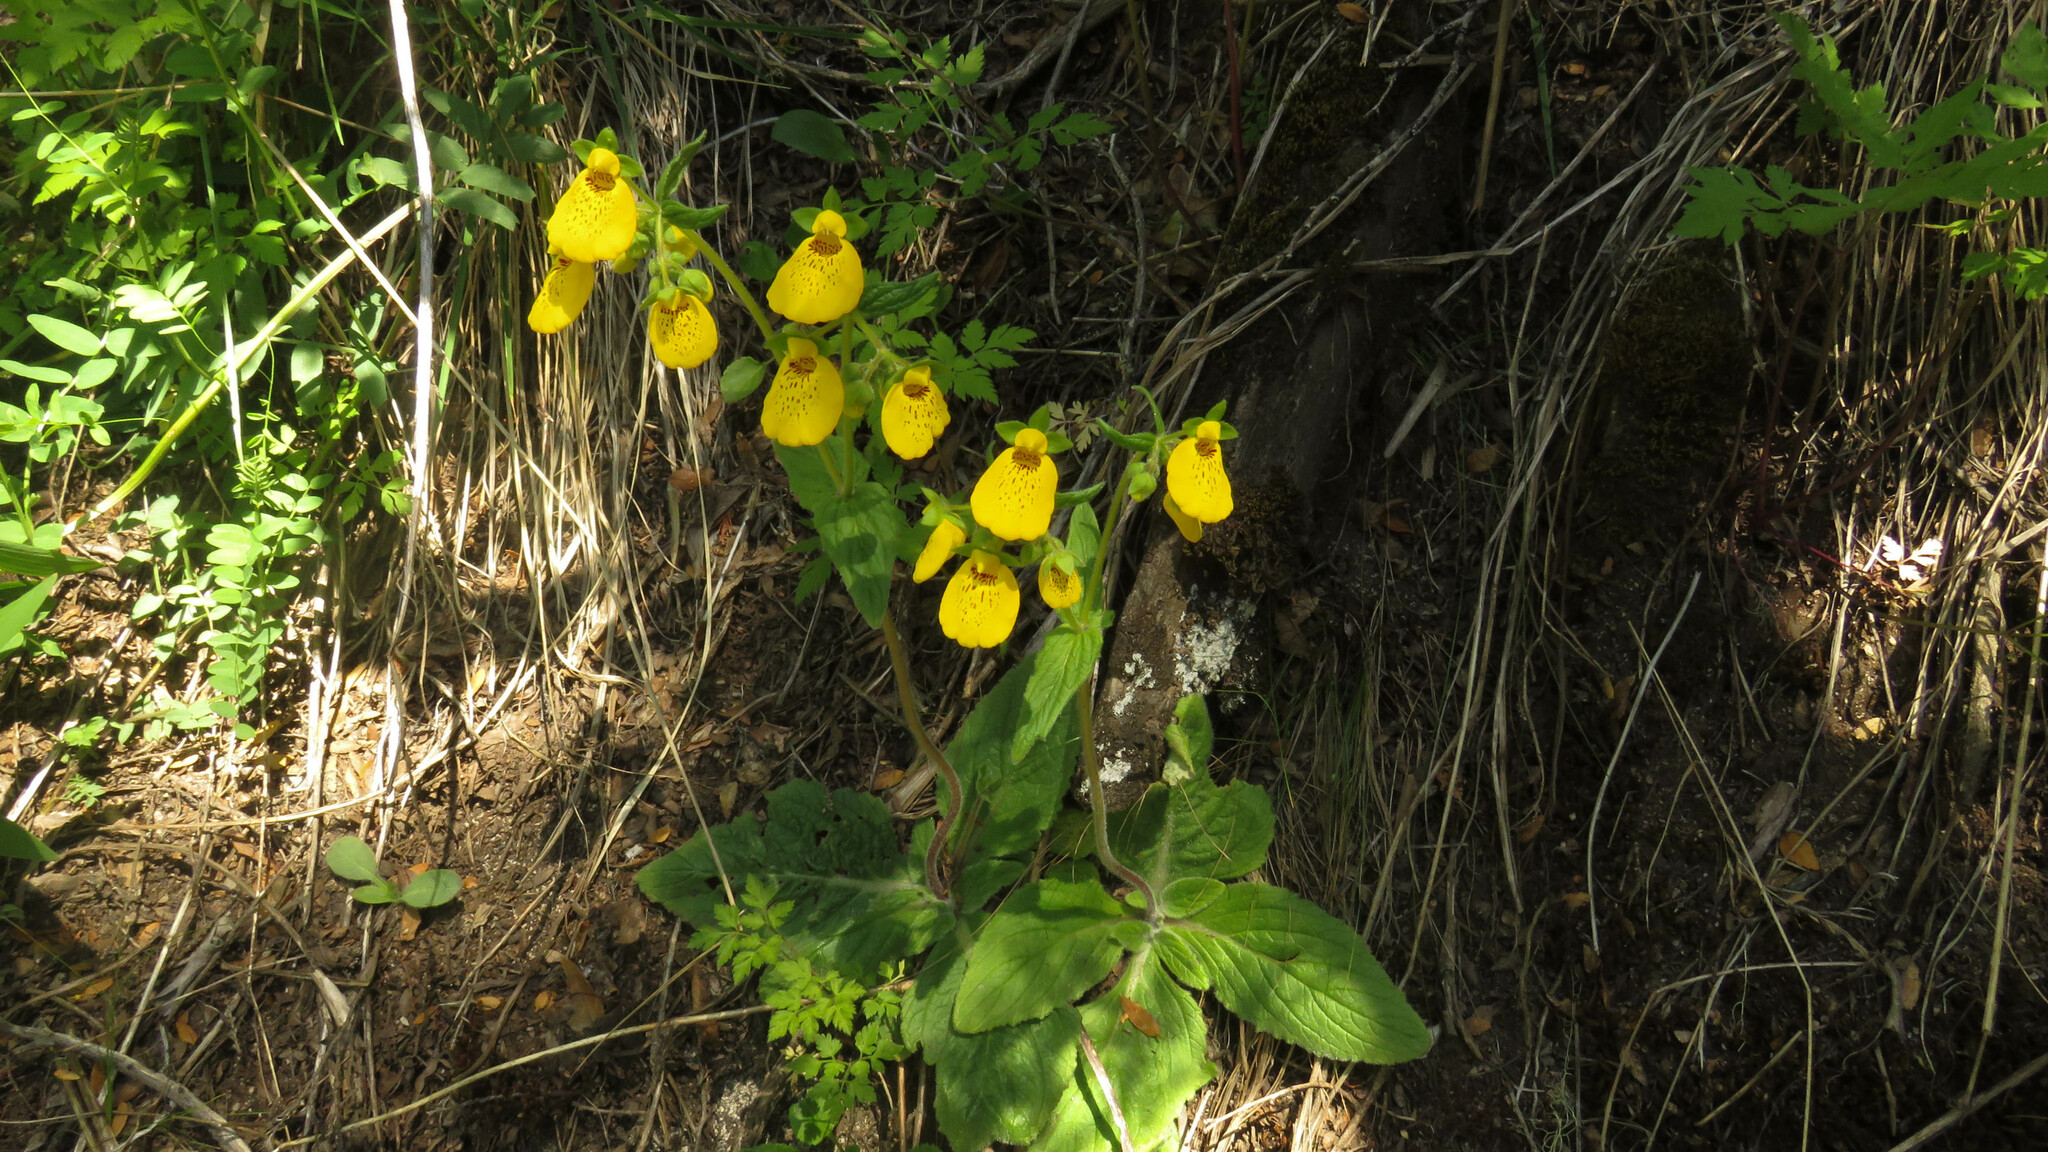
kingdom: Plantae
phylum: Tracheophyta
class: Magnoliopsida
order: Lamiales
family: Calceolariaceae
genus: Calceolaria
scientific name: Calceolaria crenatiflora
